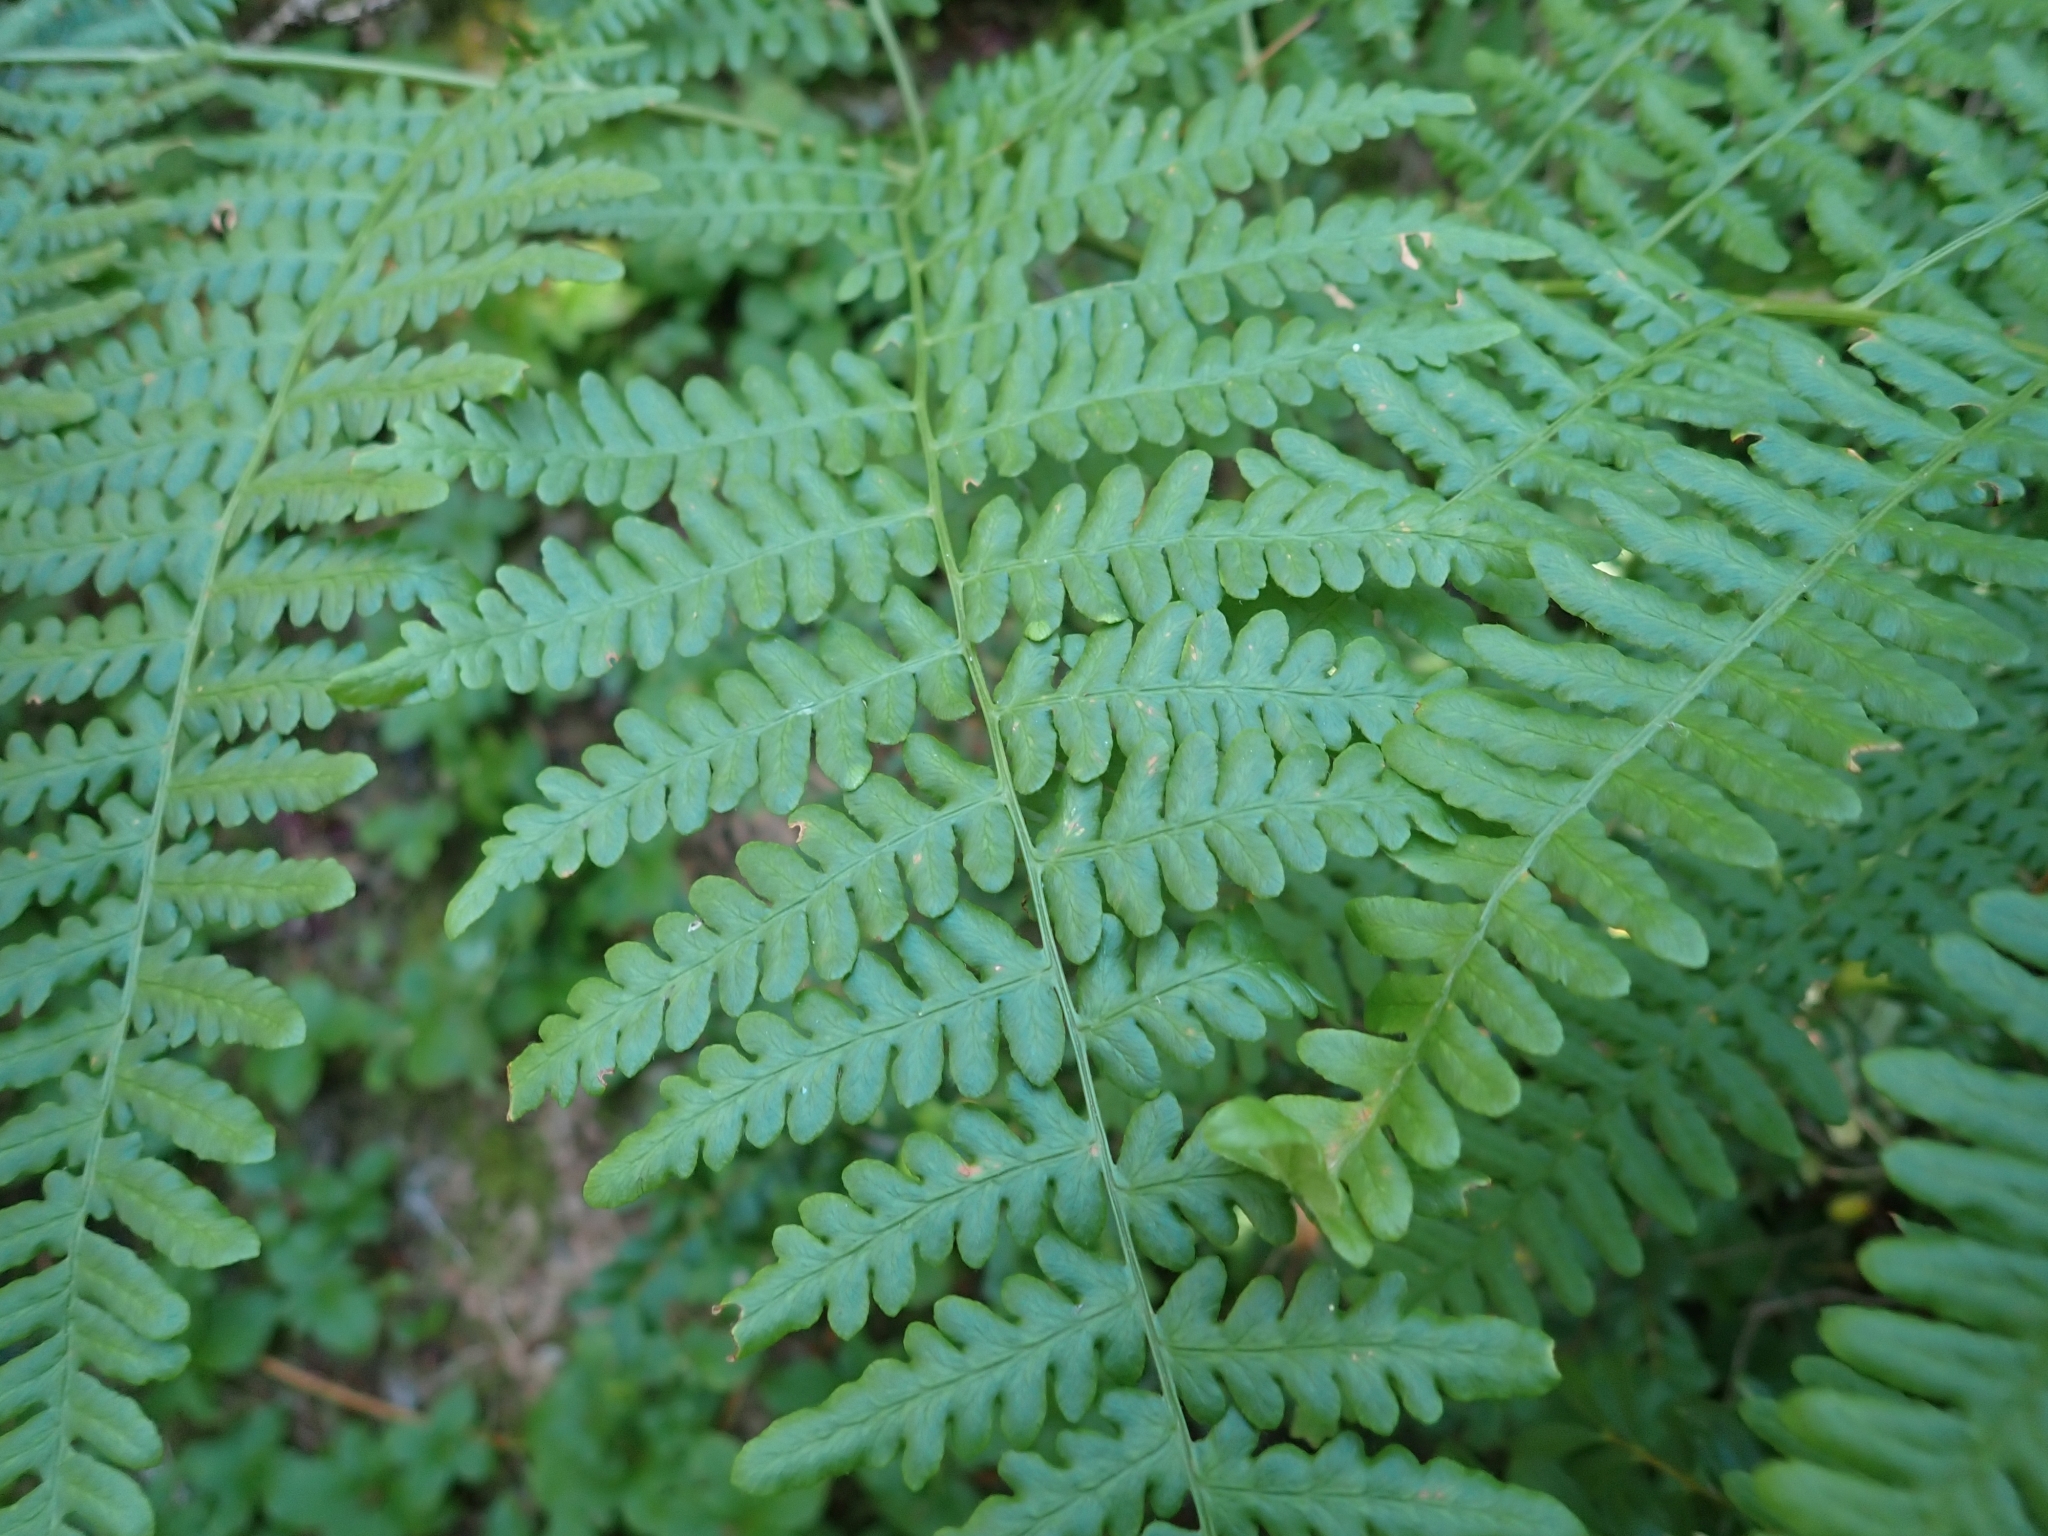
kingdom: Plantae
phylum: Tracheophyta
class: Polypodiopsida
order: Polypodiales
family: Dennstaedtiaceae
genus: Pteridium
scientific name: Pteridium aquilinum
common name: Bracken
